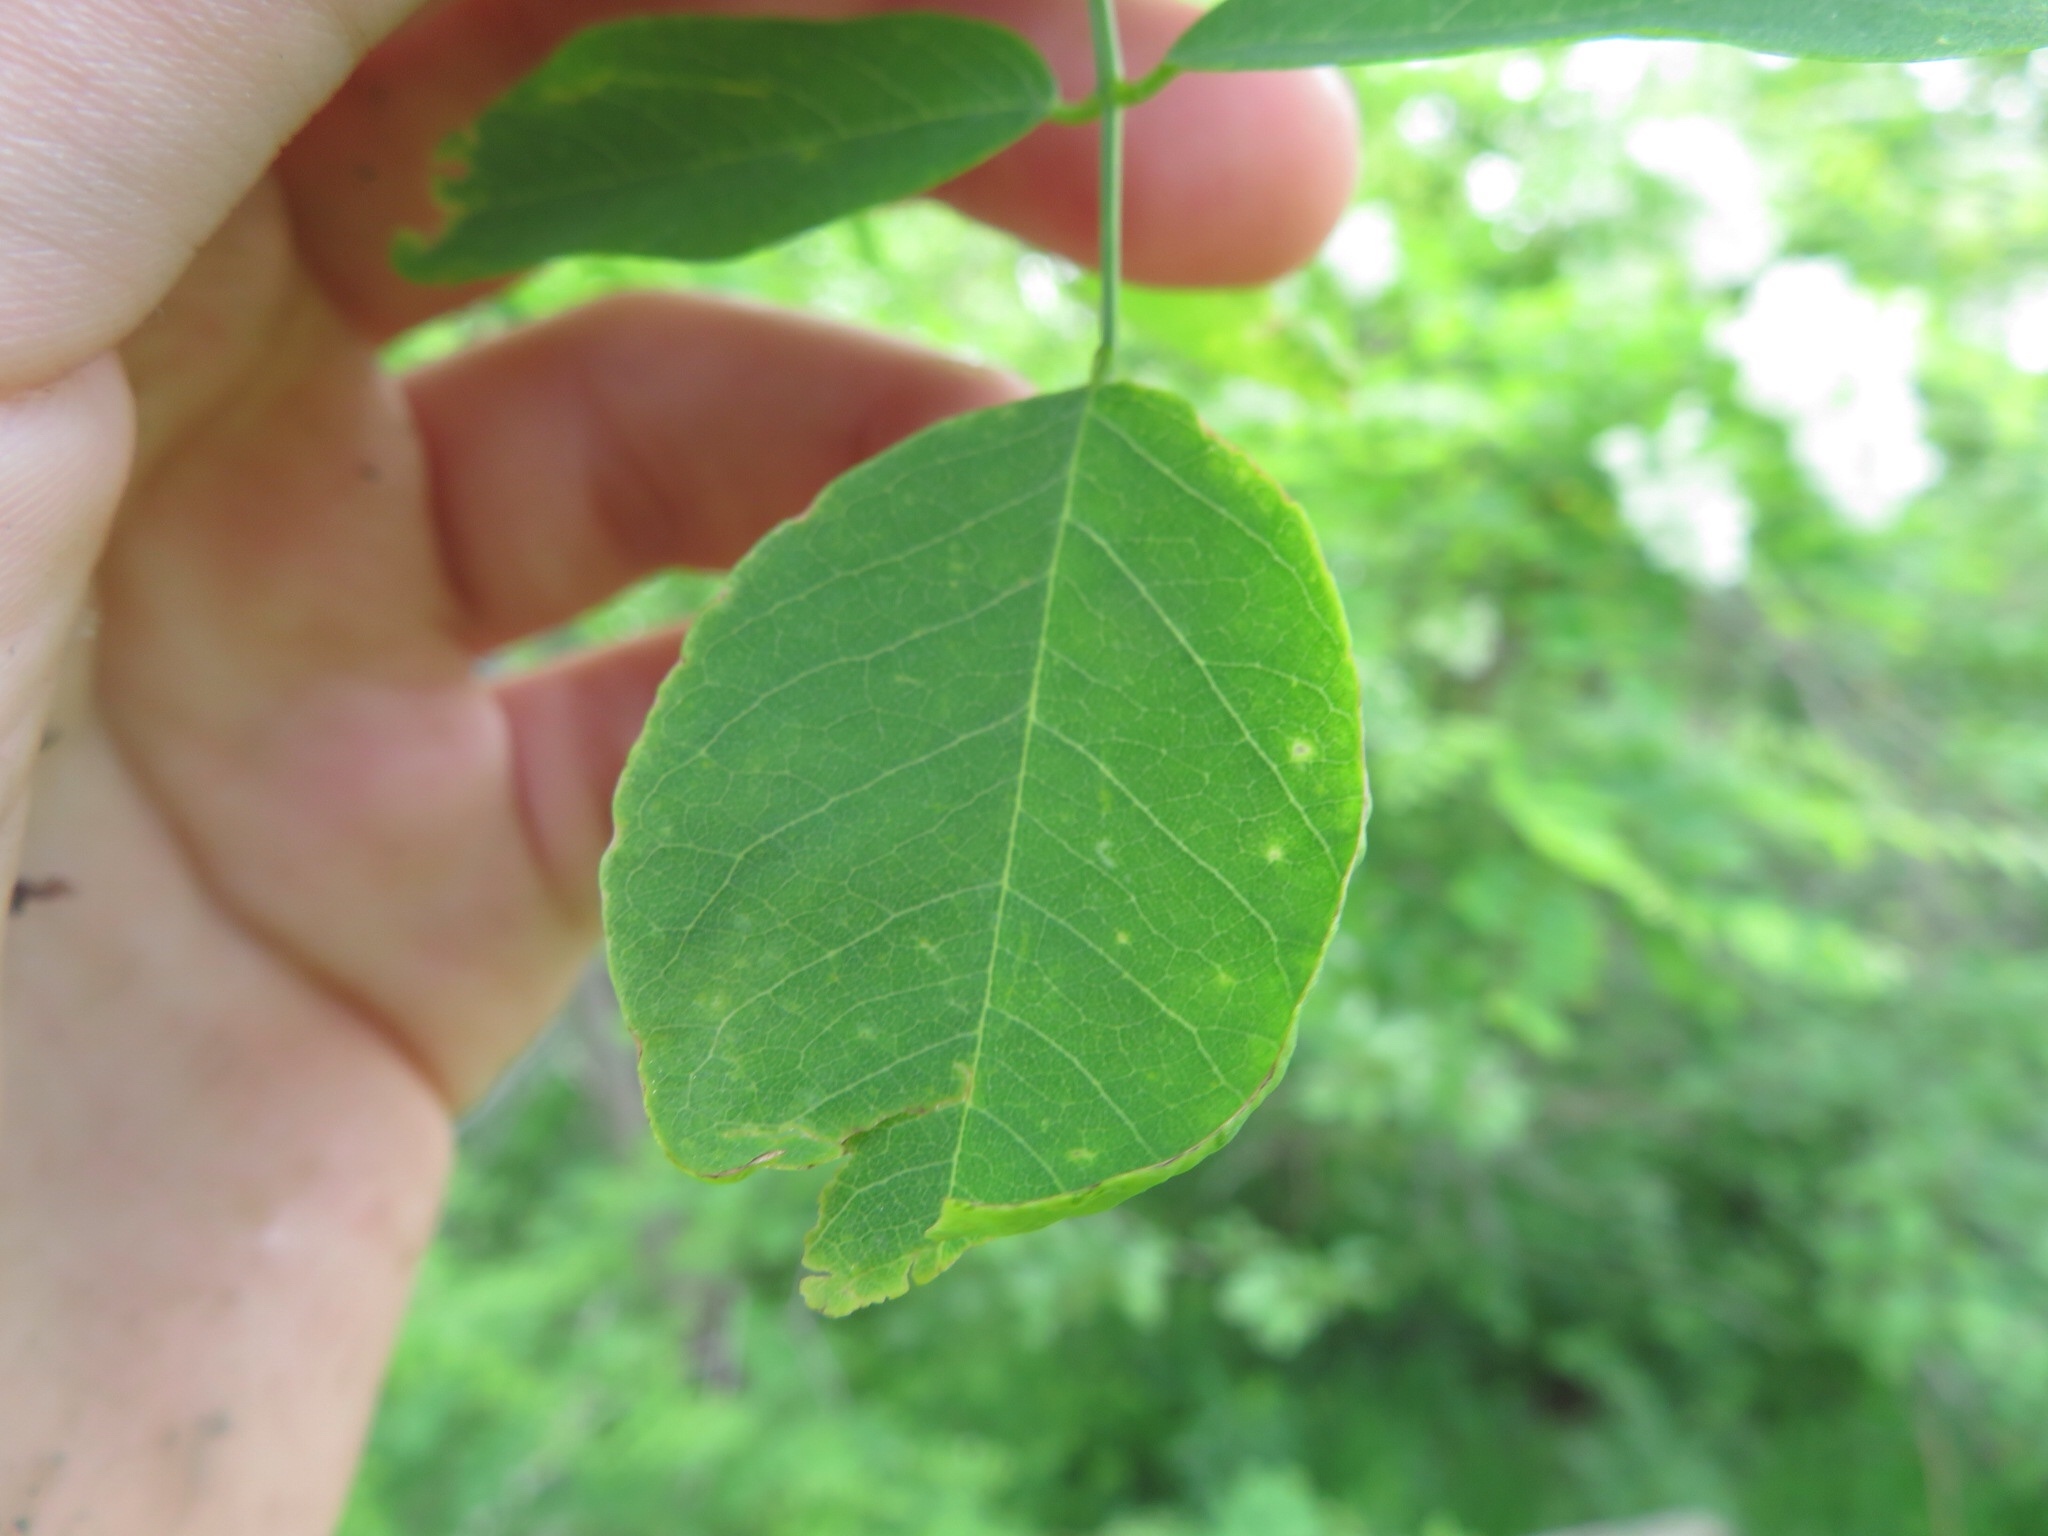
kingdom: Plantae
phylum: Tracheophyta
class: Magnoliopsida
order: Fabales
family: Fabaceae
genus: Robinia
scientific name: Robinia pseudoacacia
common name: Black locust
